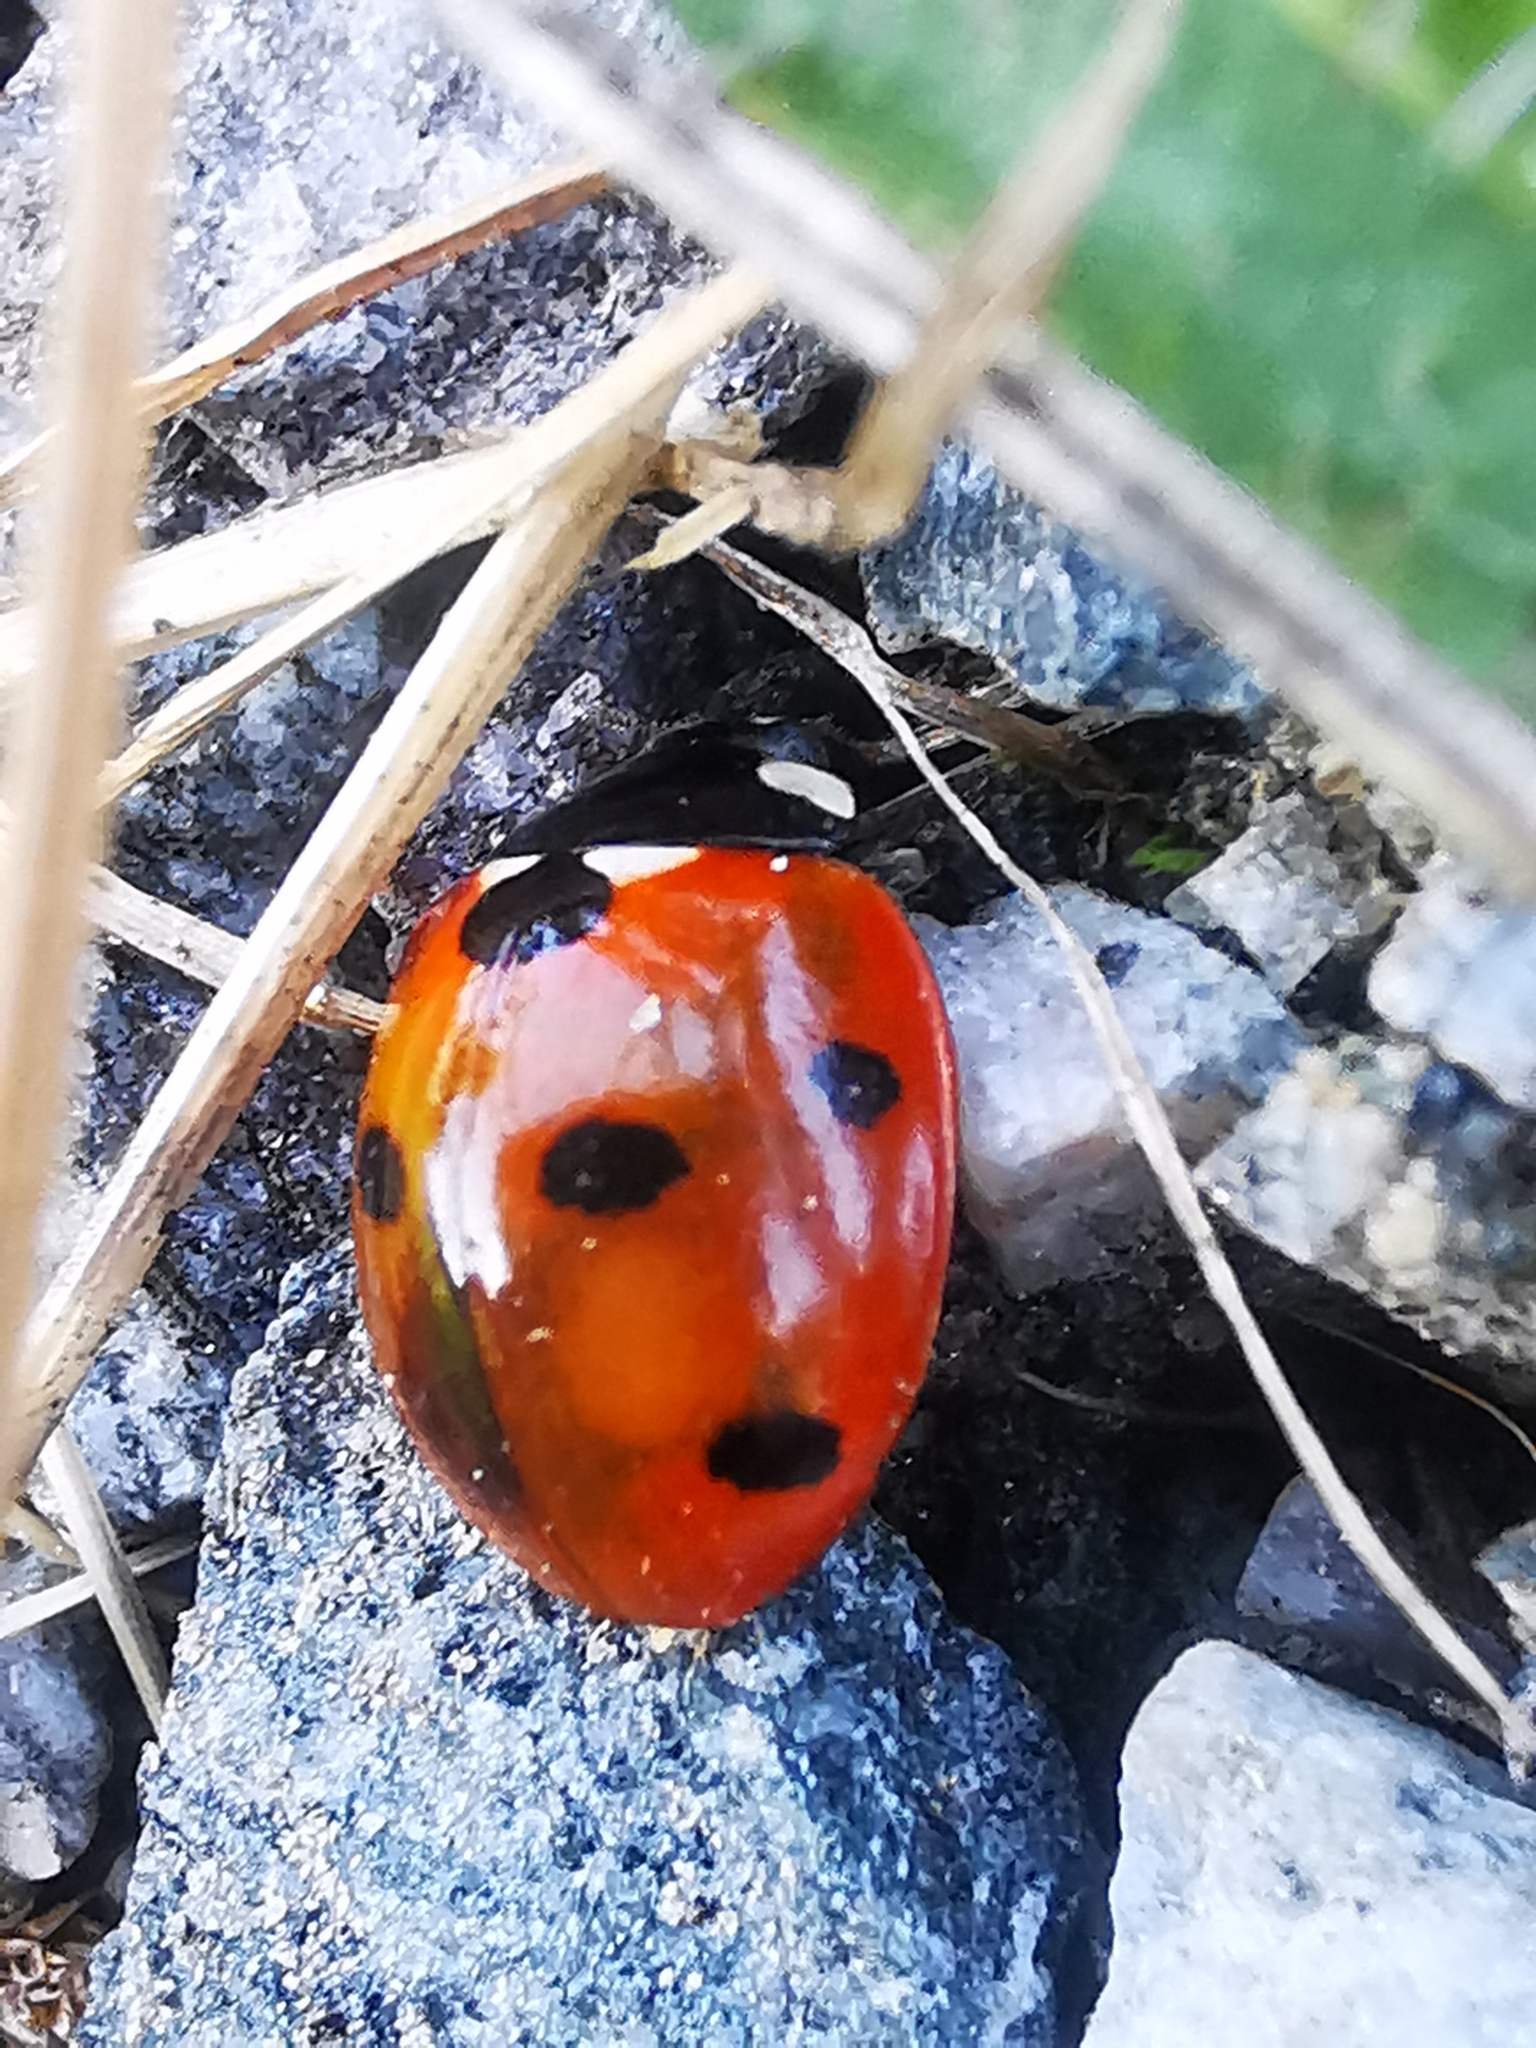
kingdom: Animalia
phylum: Arthropoda
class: Insecta
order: Coleoptera
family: Coccinellidae
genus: Coccinella
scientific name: Coccinella septempunctata
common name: Sevenspotted lady beetle
